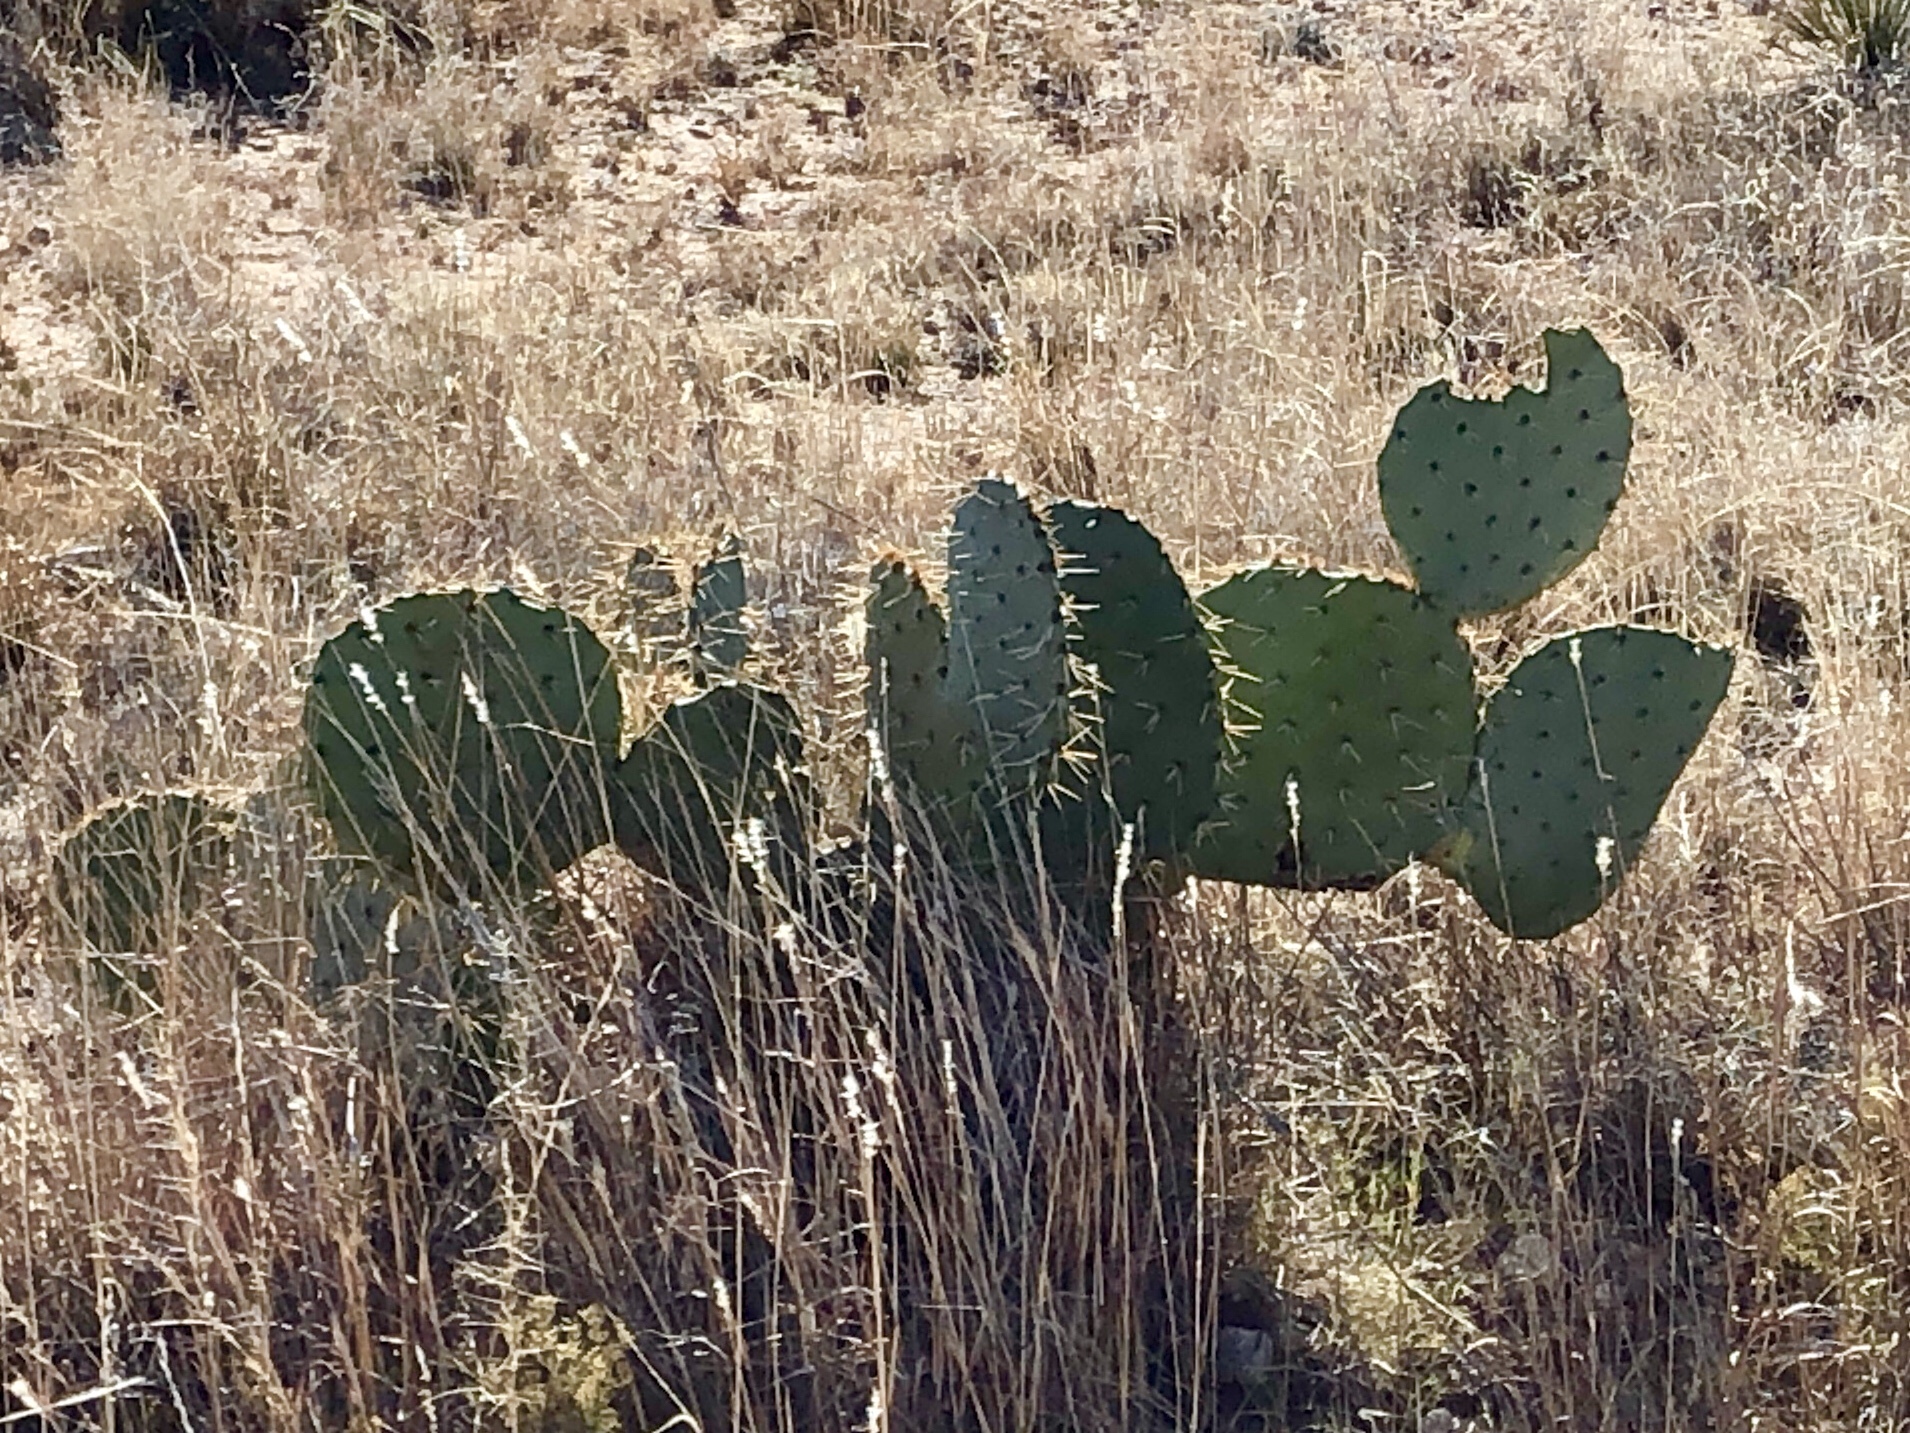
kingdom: Plantae
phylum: Tracheophyta
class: Magnoliopsida
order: Caryophyllales
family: Cactaceae
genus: Opuntia
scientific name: Opuntia orbiculata
